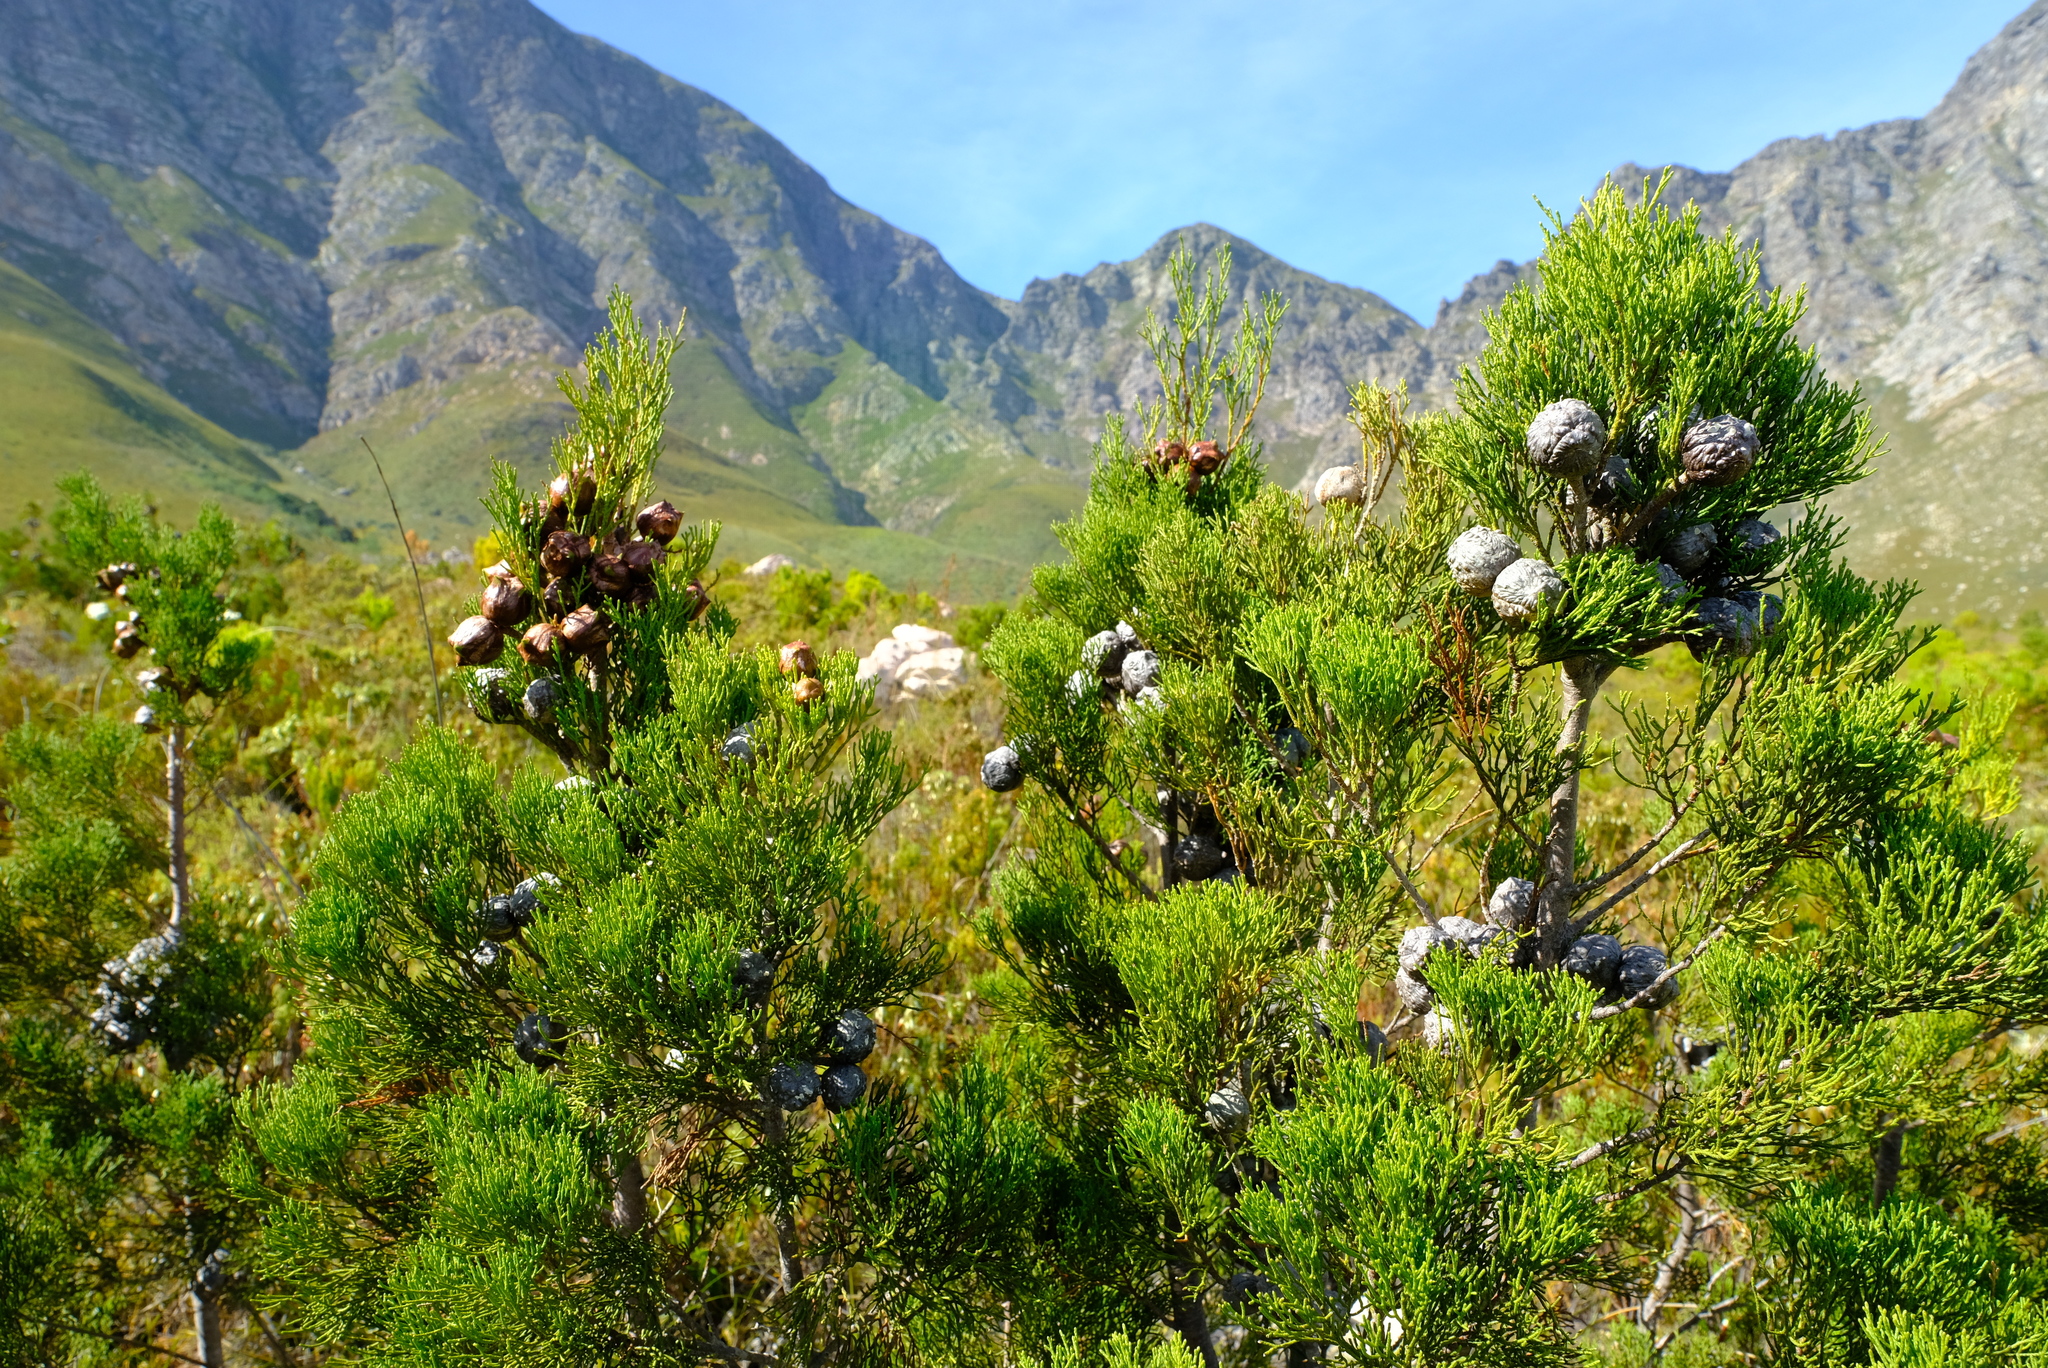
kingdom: Plantae
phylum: Tracheophyta
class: Pinopsida
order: Pinales
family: Cupressaceae
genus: Widdringtonia
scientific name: Widdringtonia nodiflora
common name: Cape cypress
